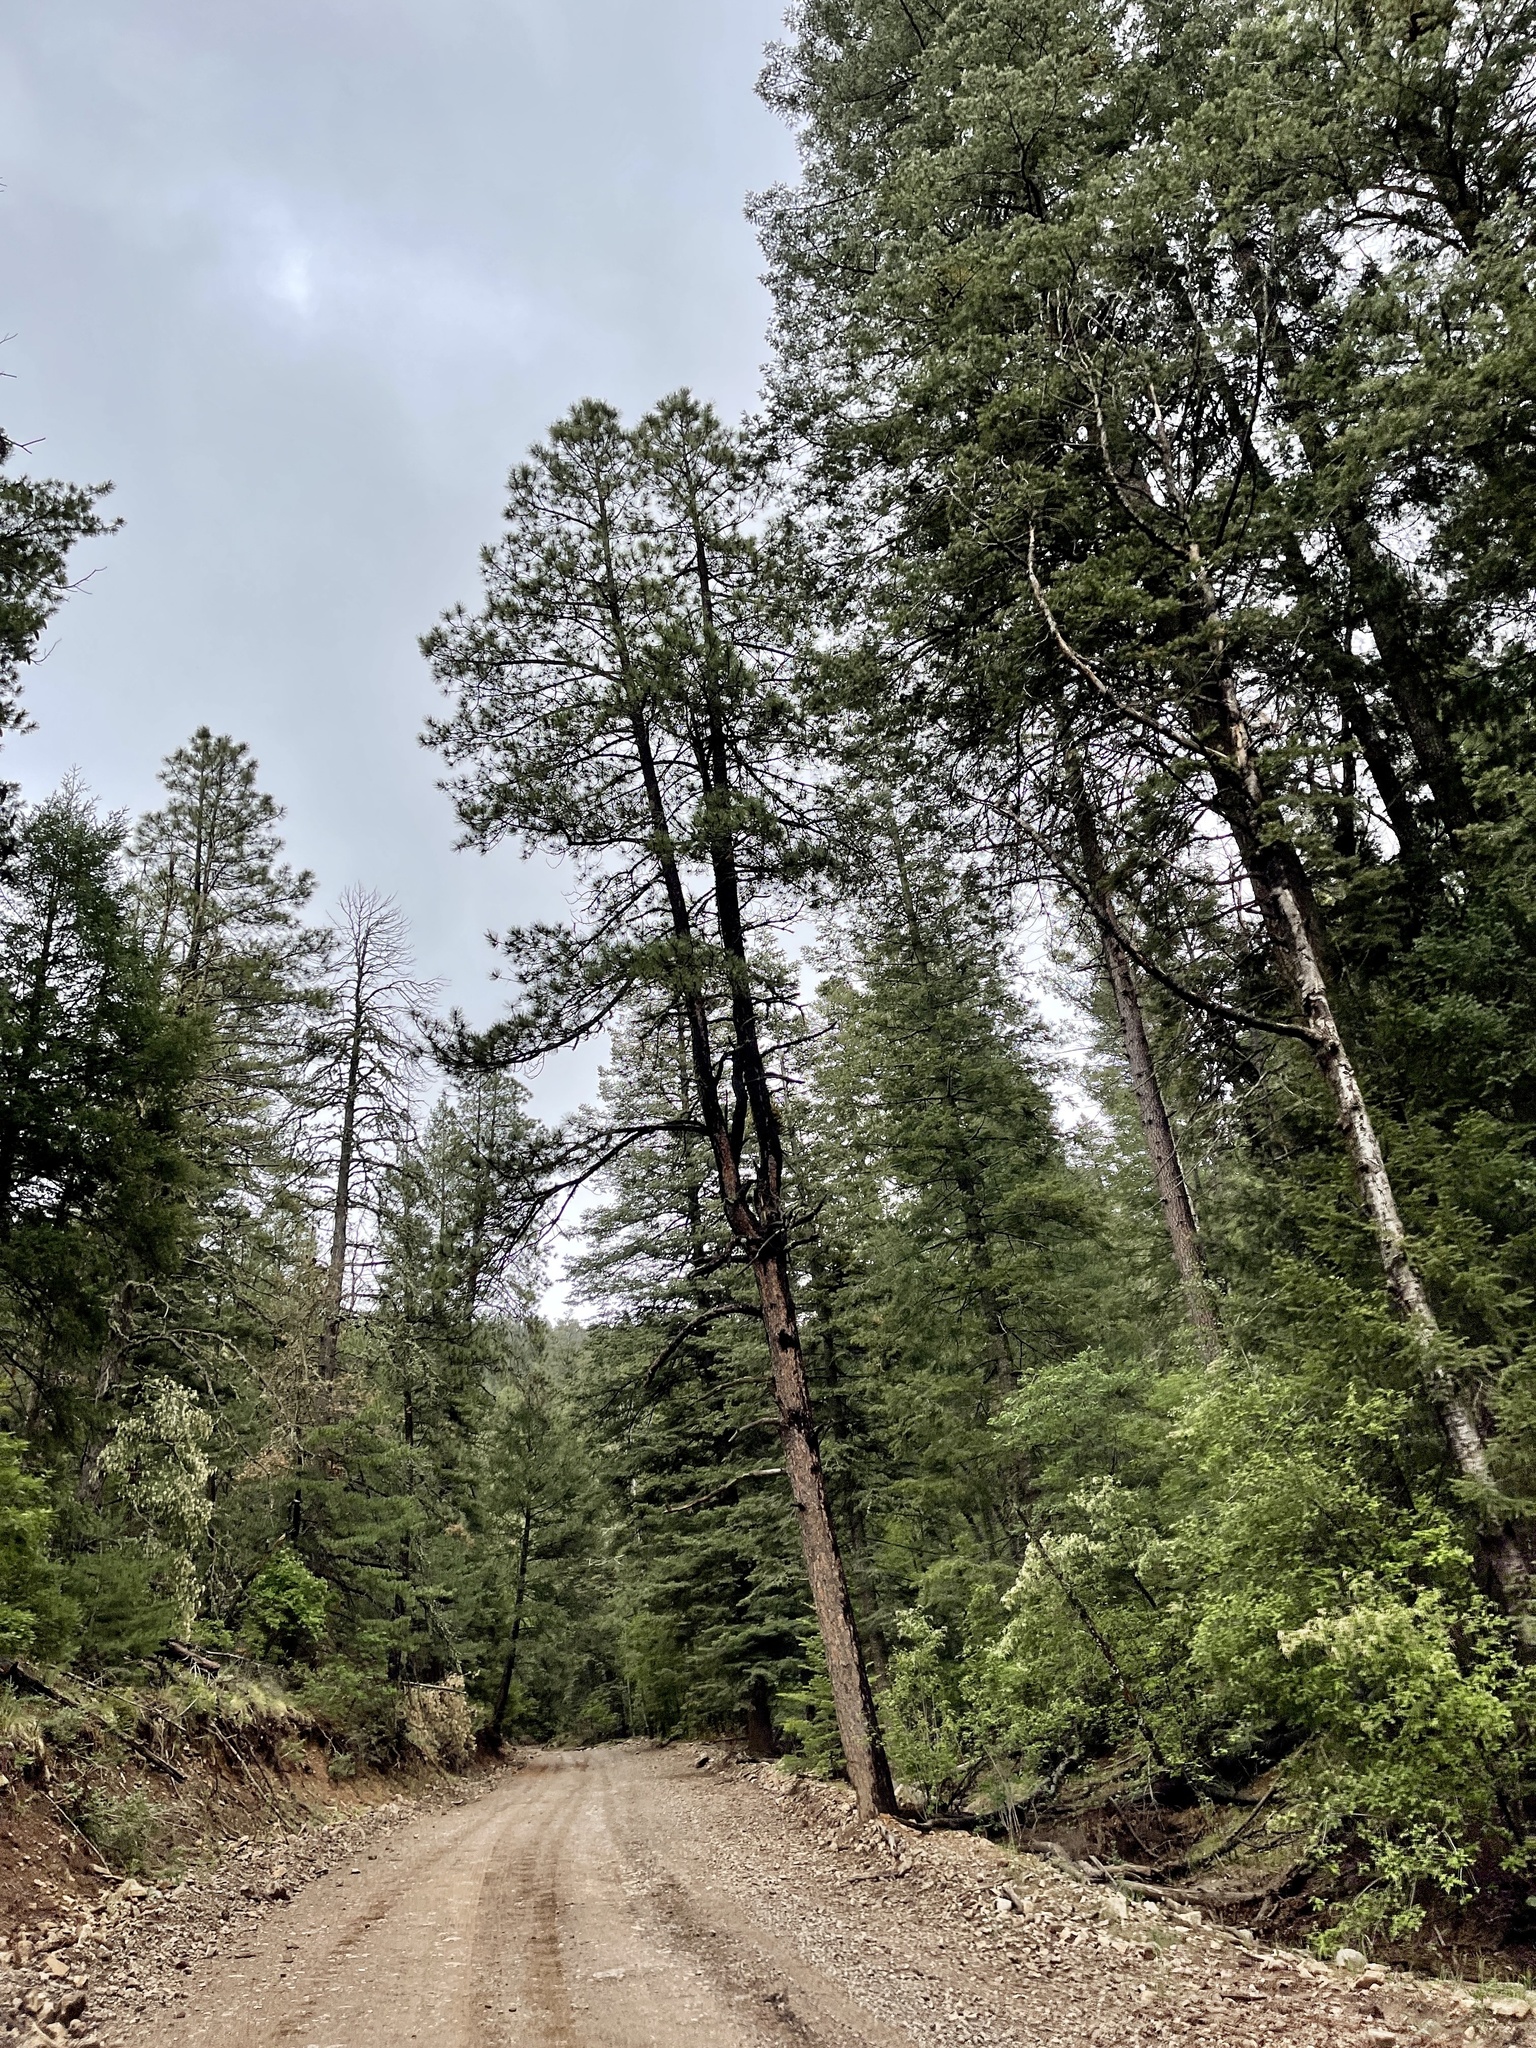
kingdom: Plantae
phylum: Tracheophyta
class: Pinopsida
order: Pinales
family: Pinaceae
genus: Pinus
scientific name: Pinus ponderosa
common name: Western yellow-pine
